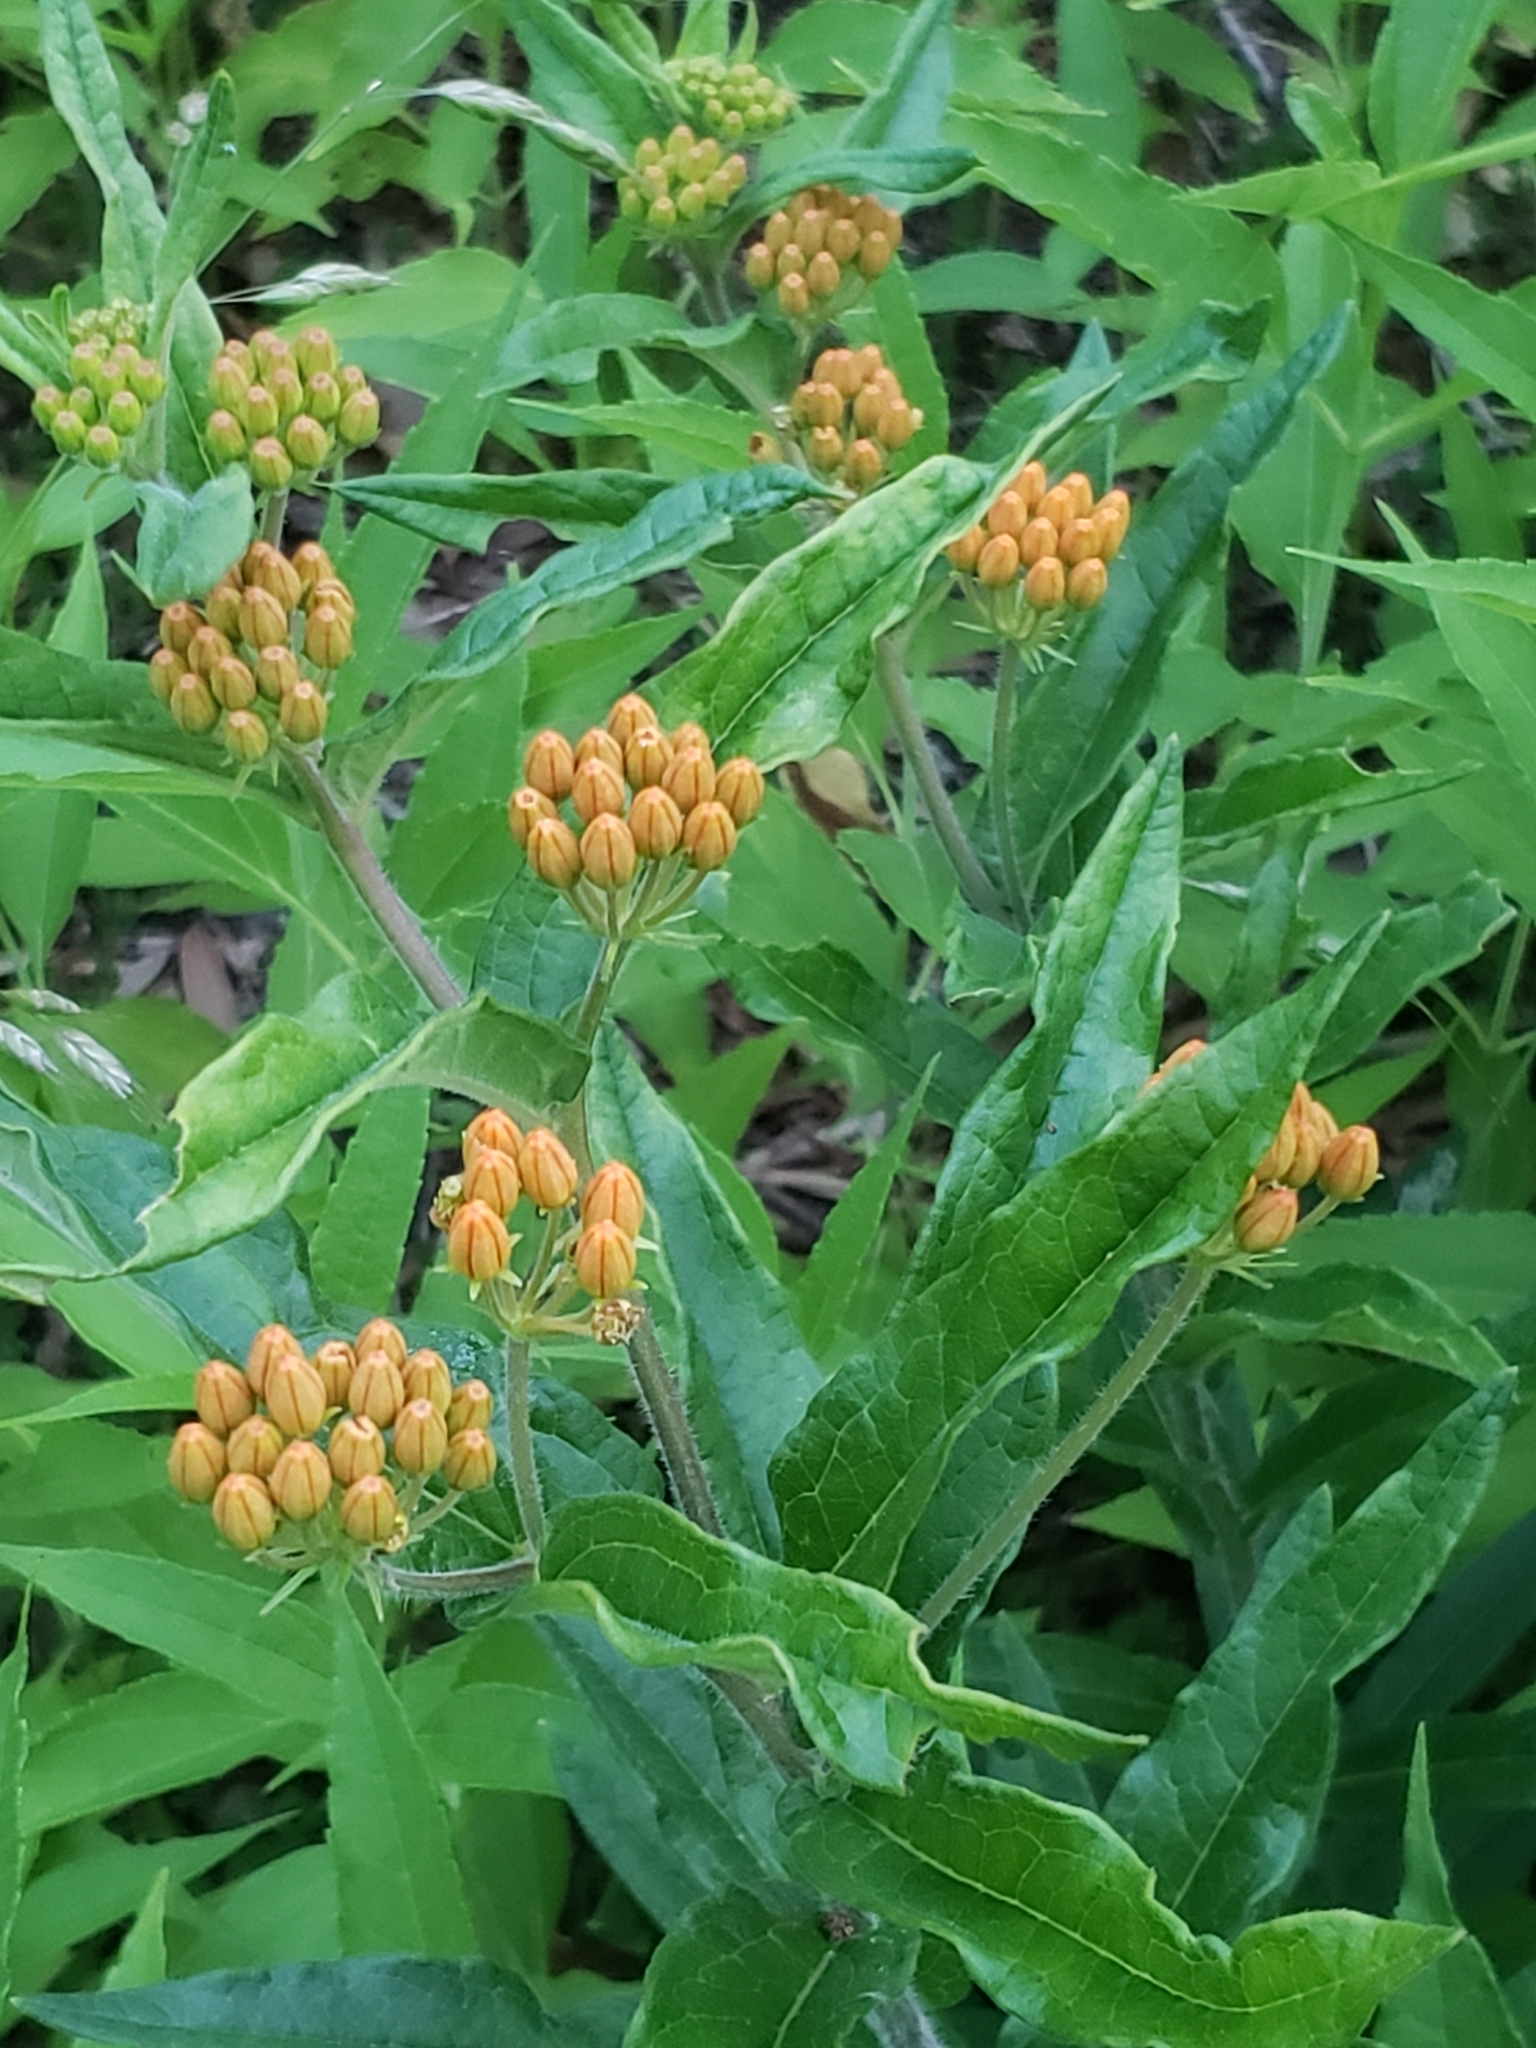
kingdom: Plantae
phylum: Tracheophyta
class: Magnoliopsida
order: Gentianales
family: Apocynaceae
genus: Asclepias
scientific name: Asclepias tuberosa
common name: Butterfly milkweed
